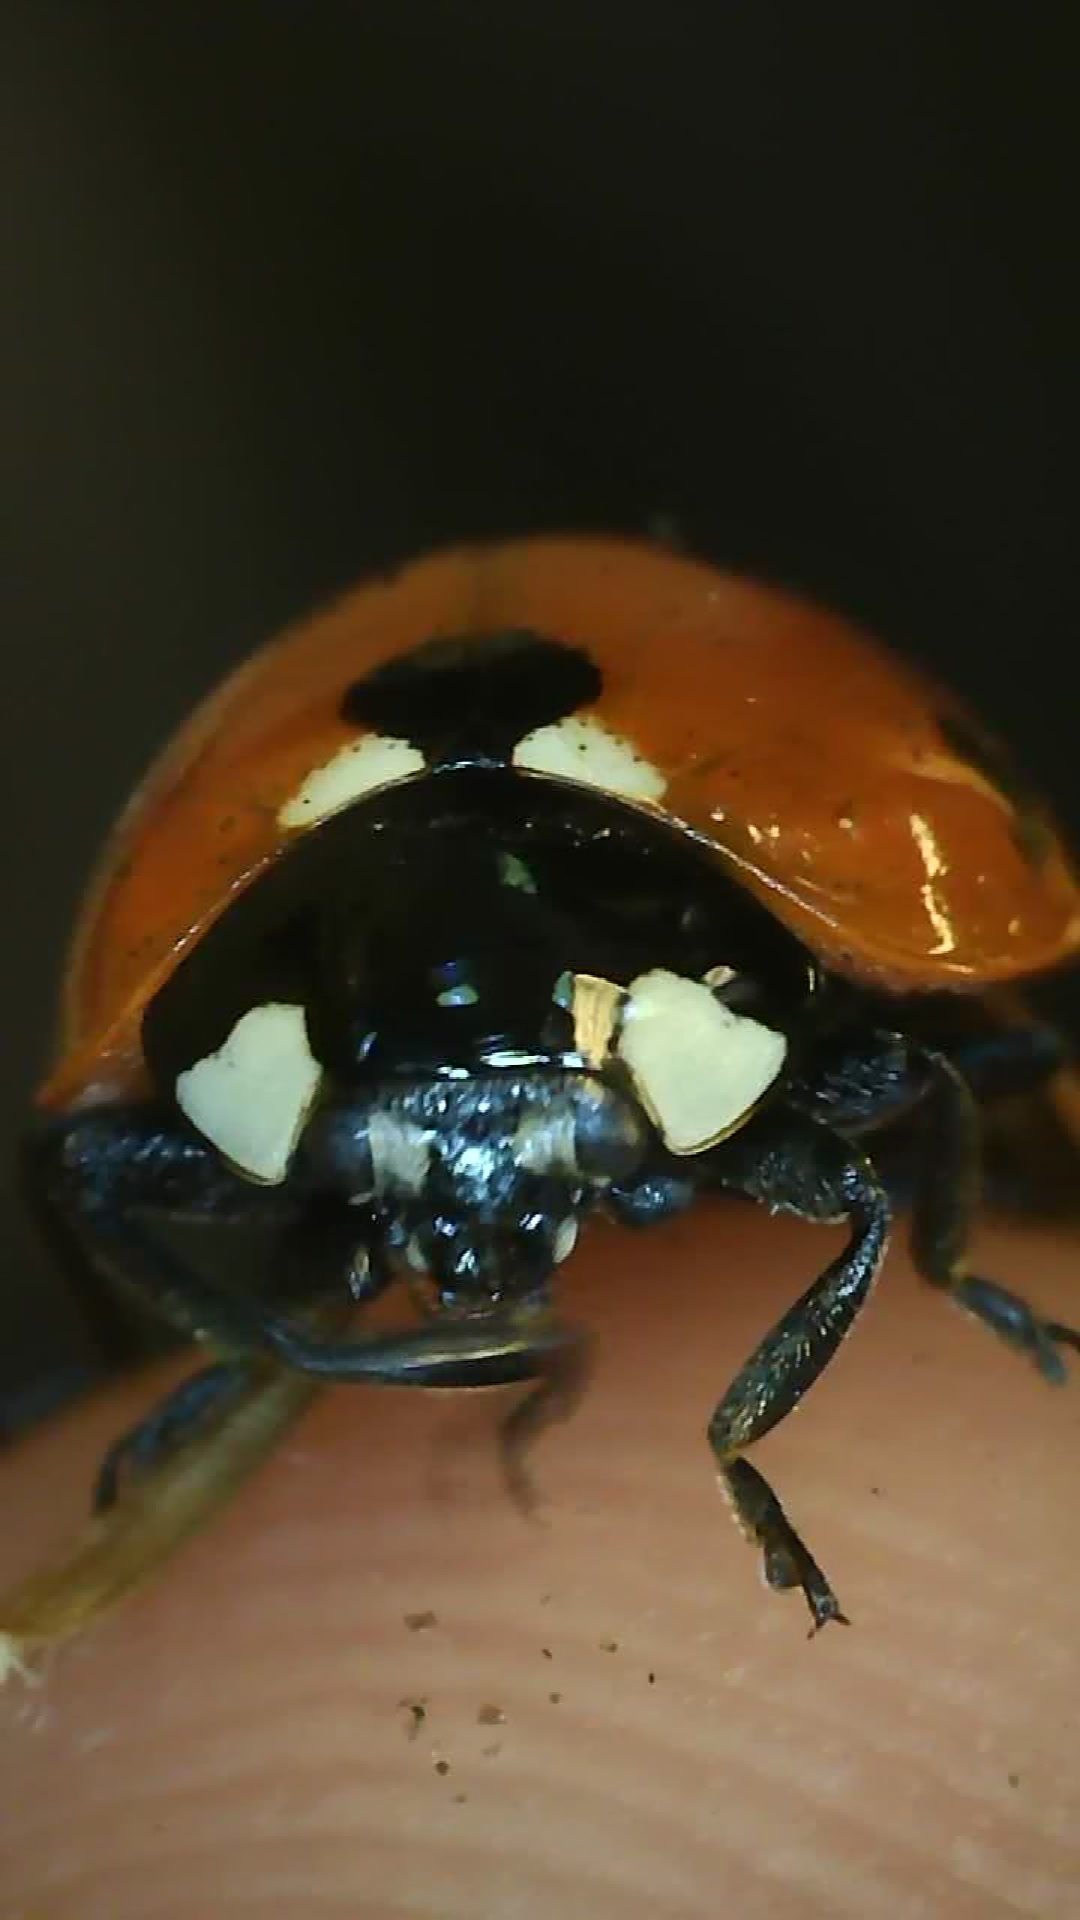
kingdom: Animalia
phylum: Arthropoda
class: Insecta
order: Coleoptera
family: Coccinellidae
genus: Coccinella
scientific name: Coccinella septempunctata
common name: Sevenspotted lady beetle
